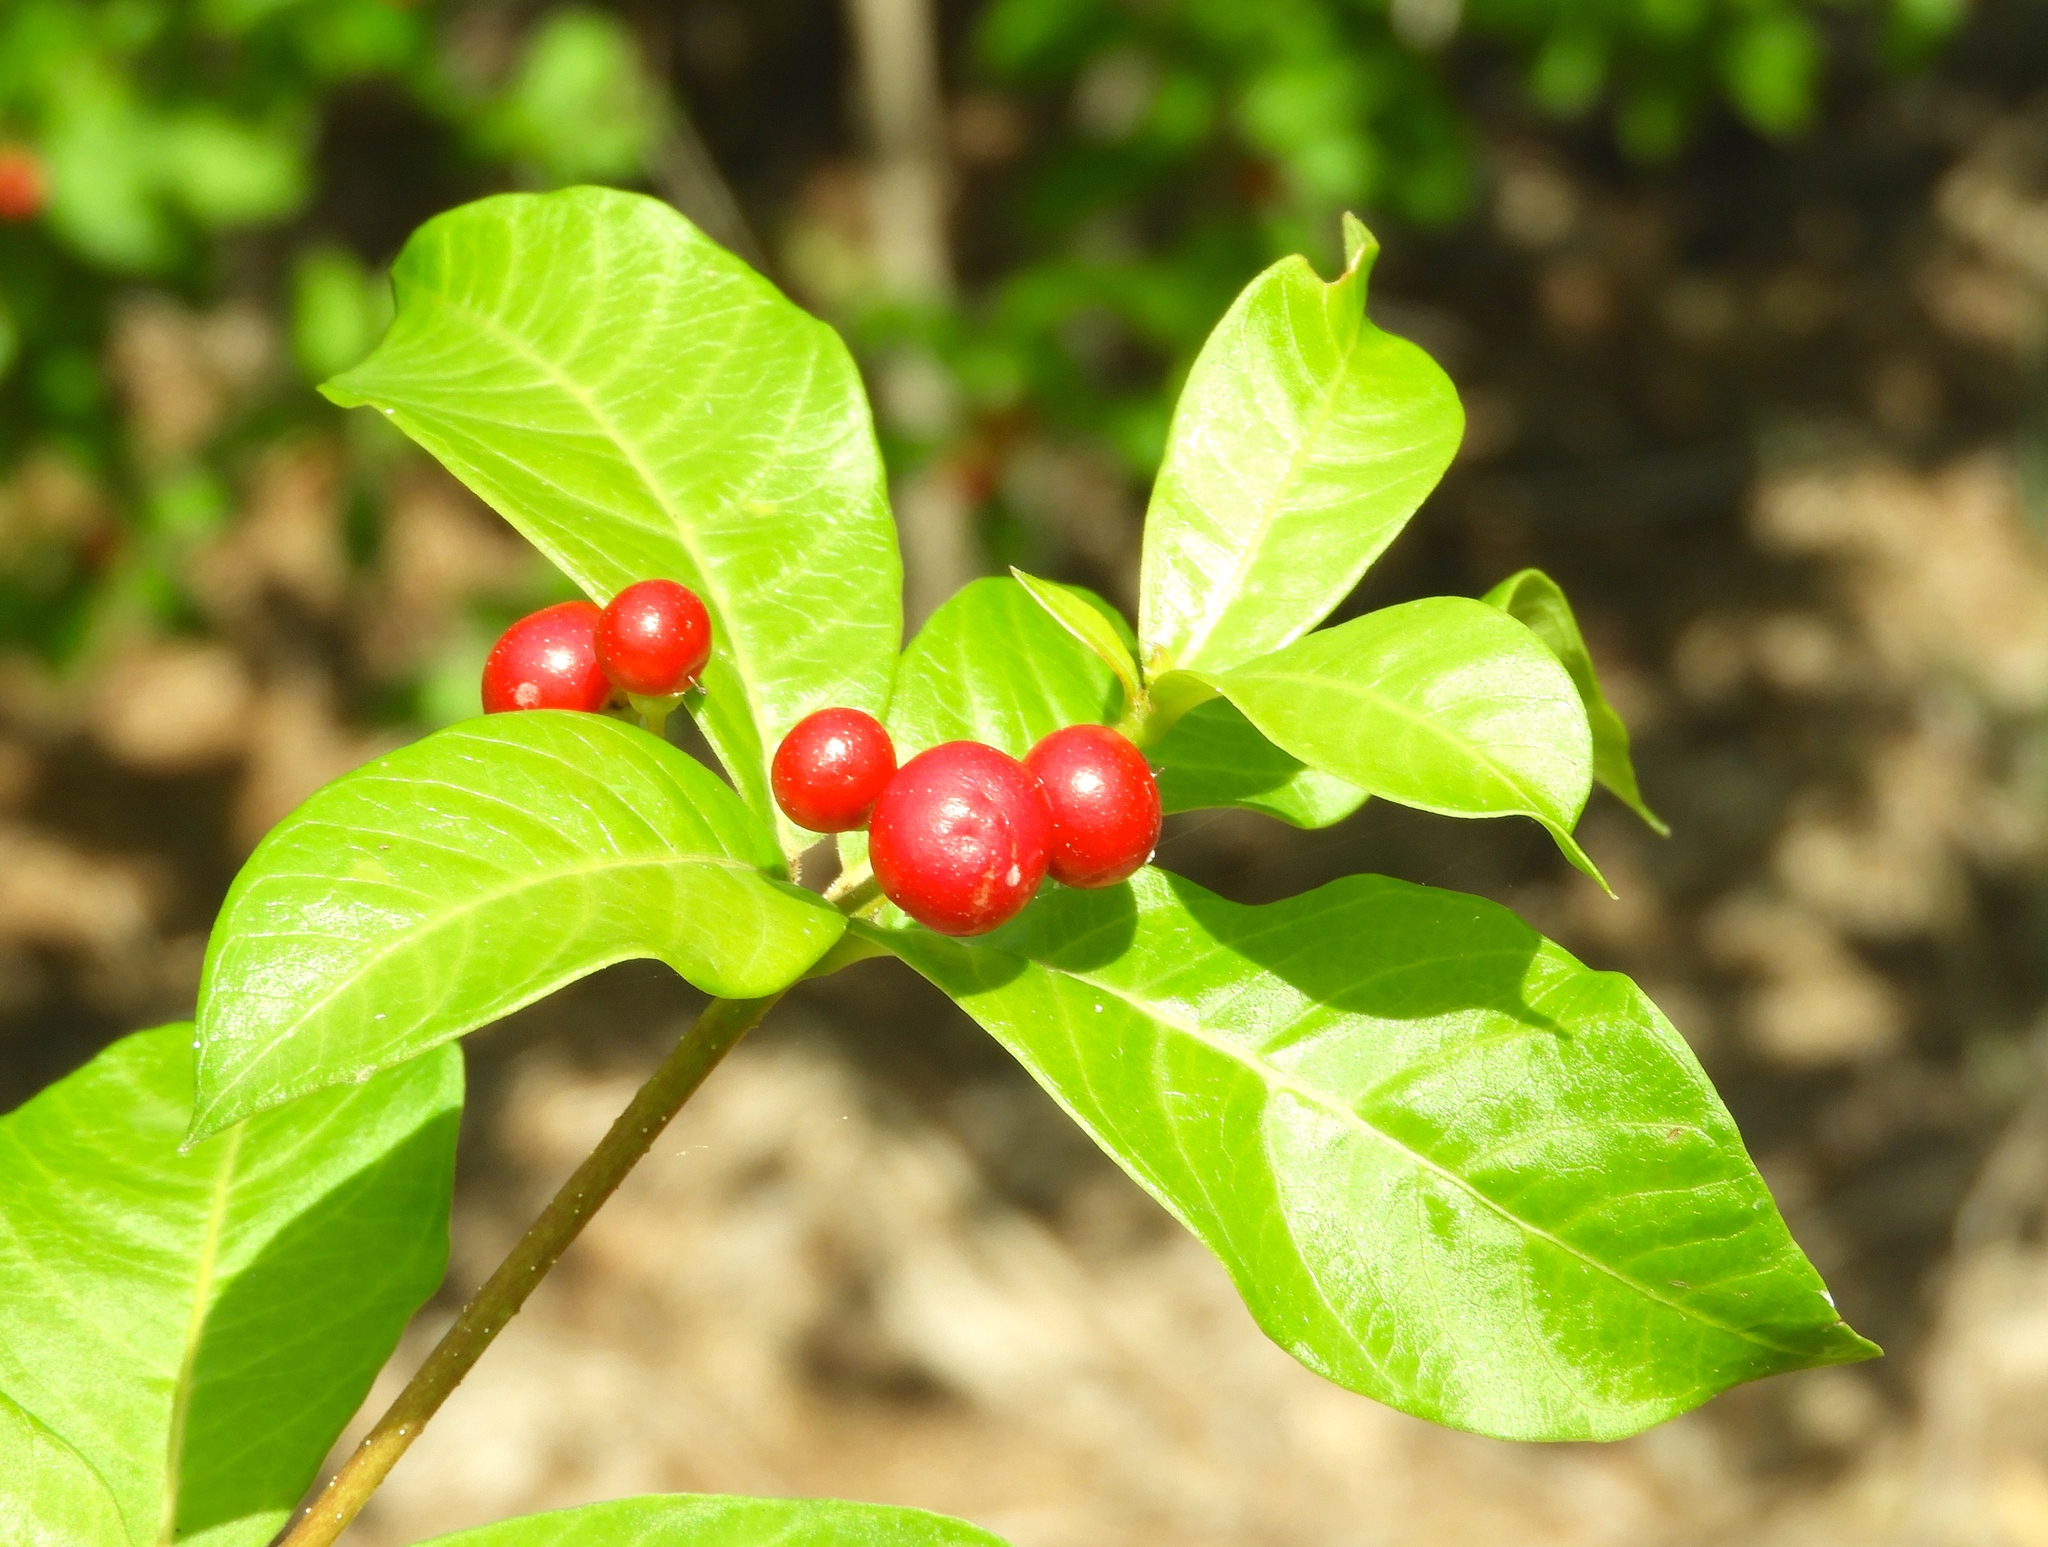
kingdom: Plantae
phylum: Tracheophyta
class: Magnoliopsida
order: Gentianales
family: Apocynaceae
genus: Rauvolfia
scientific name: Rauvolfia tetraphylla
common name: Four-leaf devil-pepper
